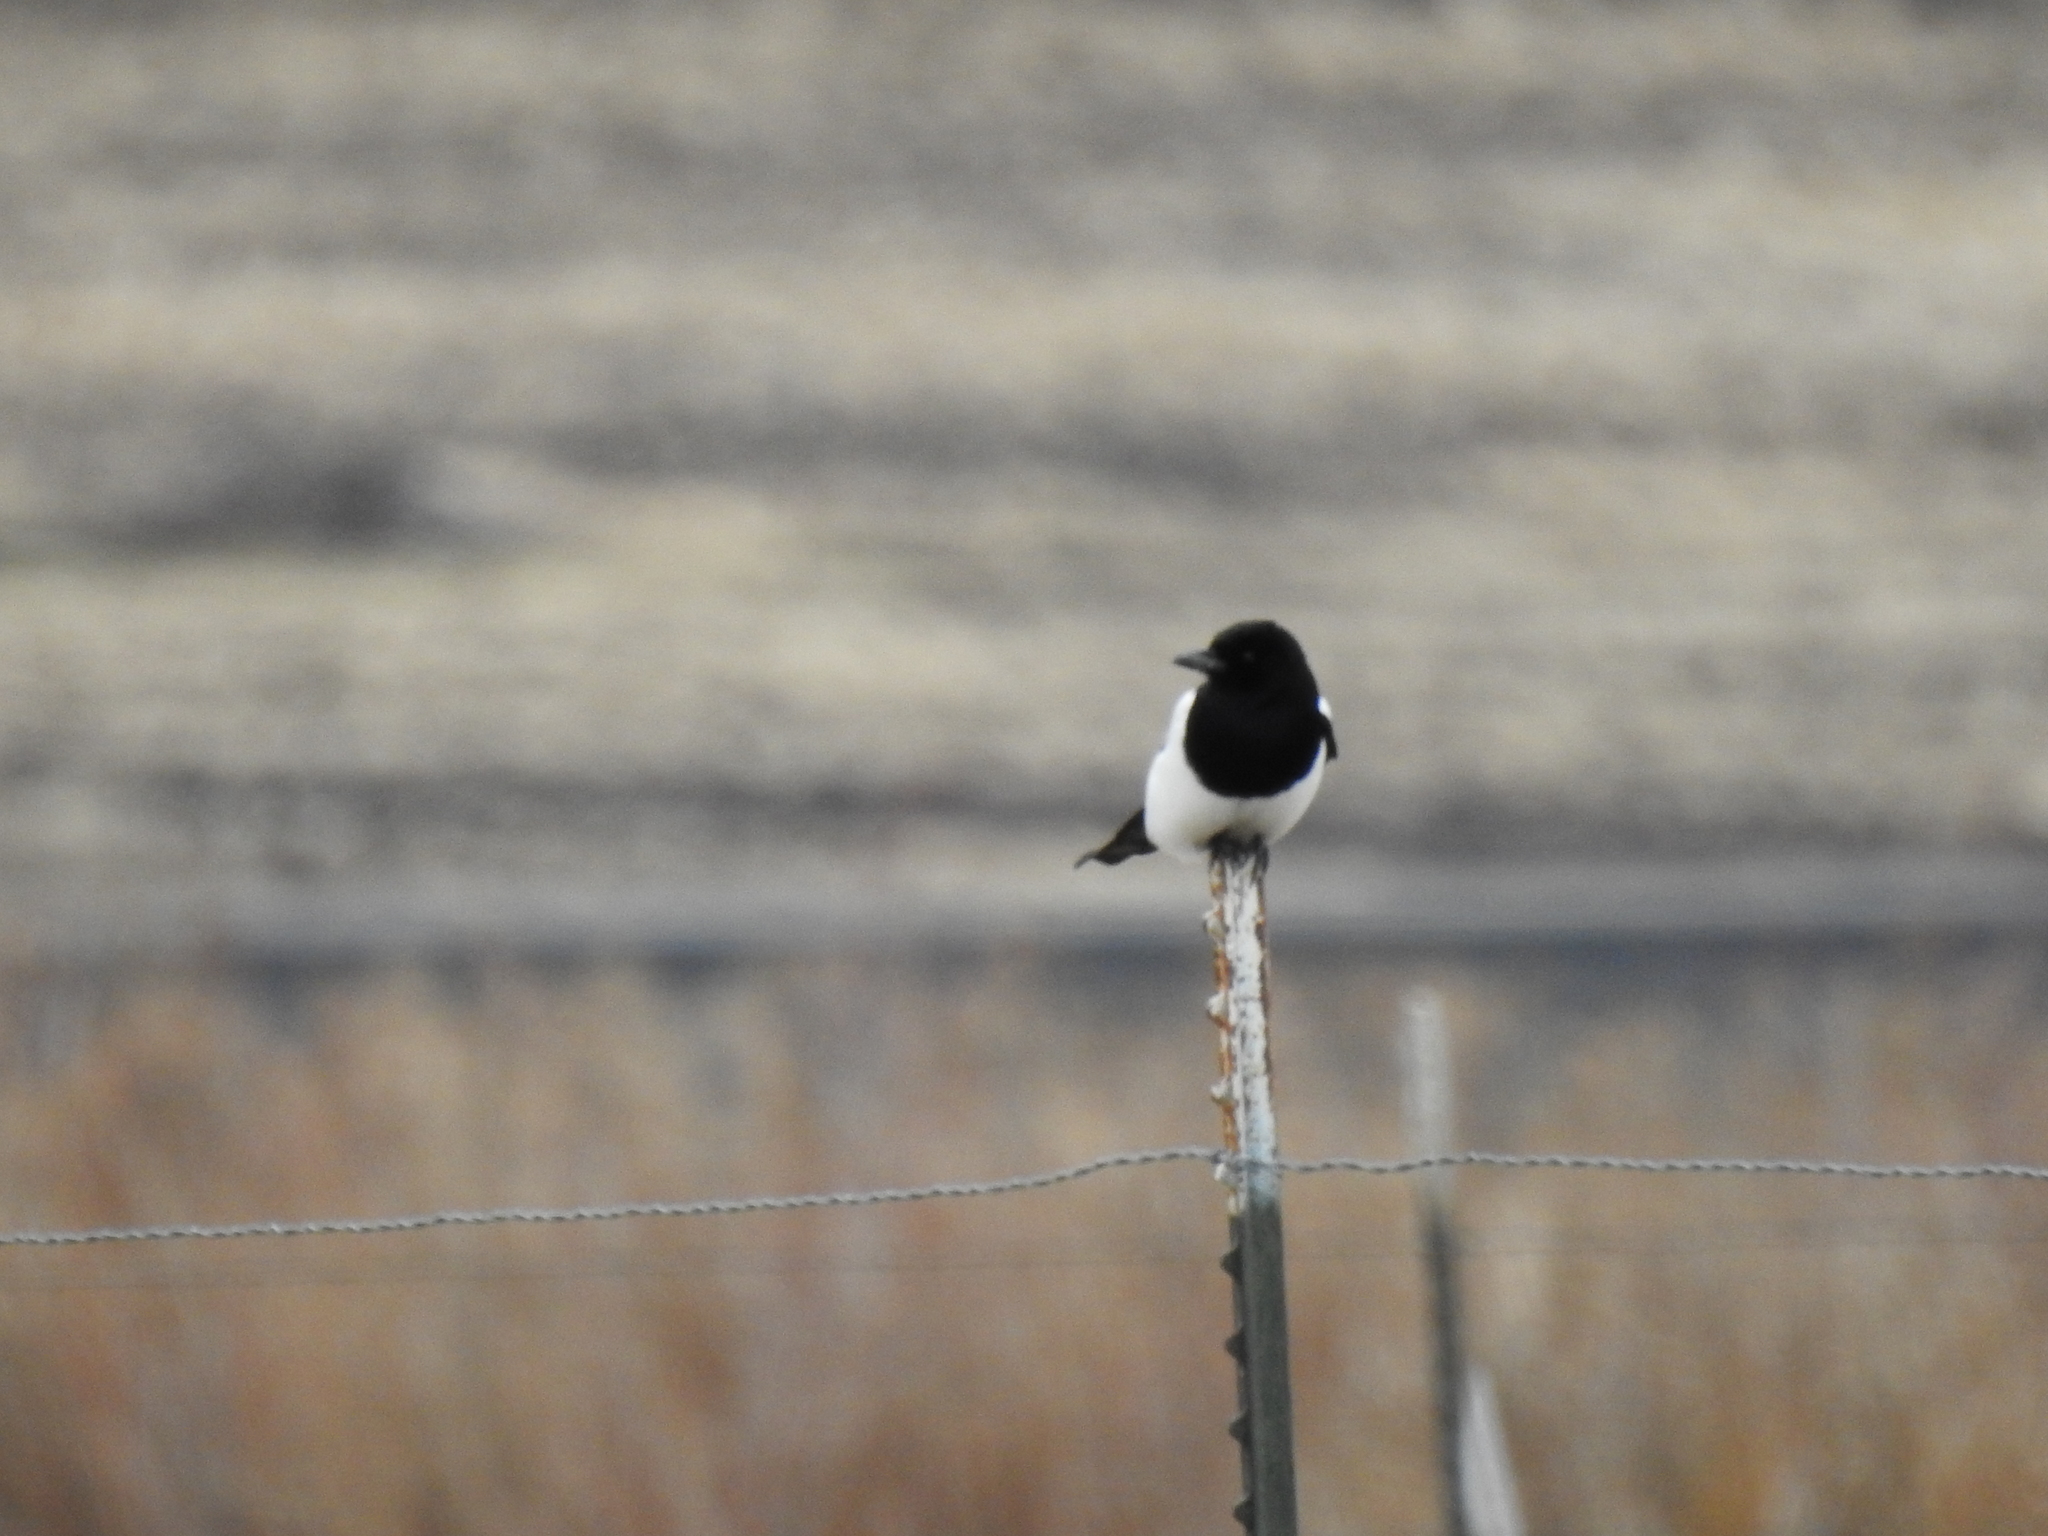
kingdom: Animalia
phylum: Chordata
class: Aves
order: Passeriformes
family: Corvidae
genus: Pica
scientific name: Pica hudsonia
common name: Black-billed magpie
